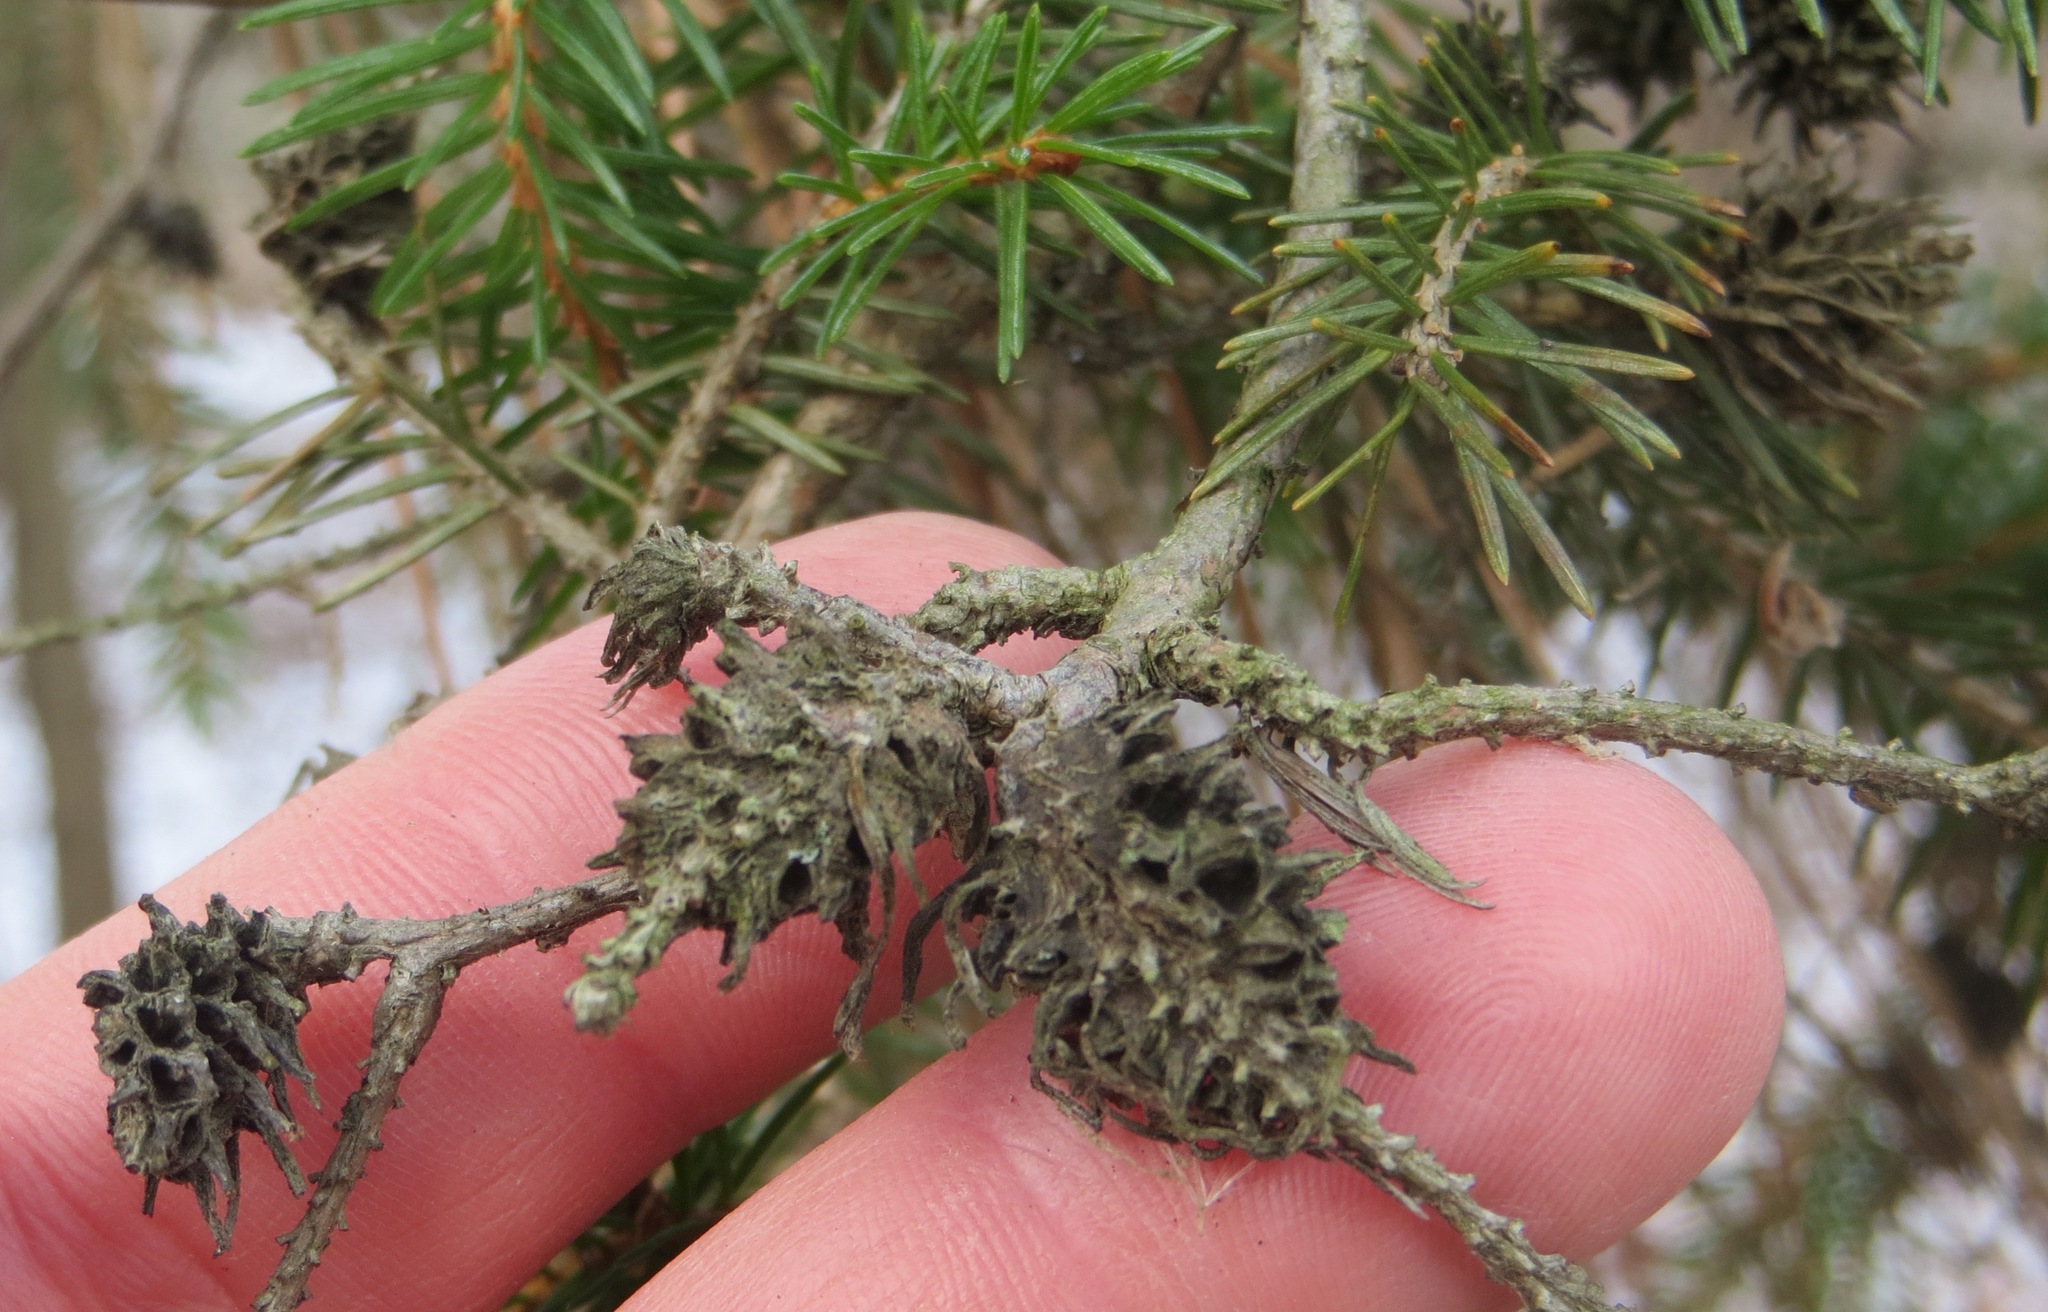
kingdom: Animalia
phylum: Arthropoda
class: Insecta
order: Hemiptera
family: Adelgidae
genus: Adelges
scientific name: Adelges abietis
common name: Eastern spruce gall adelgid
